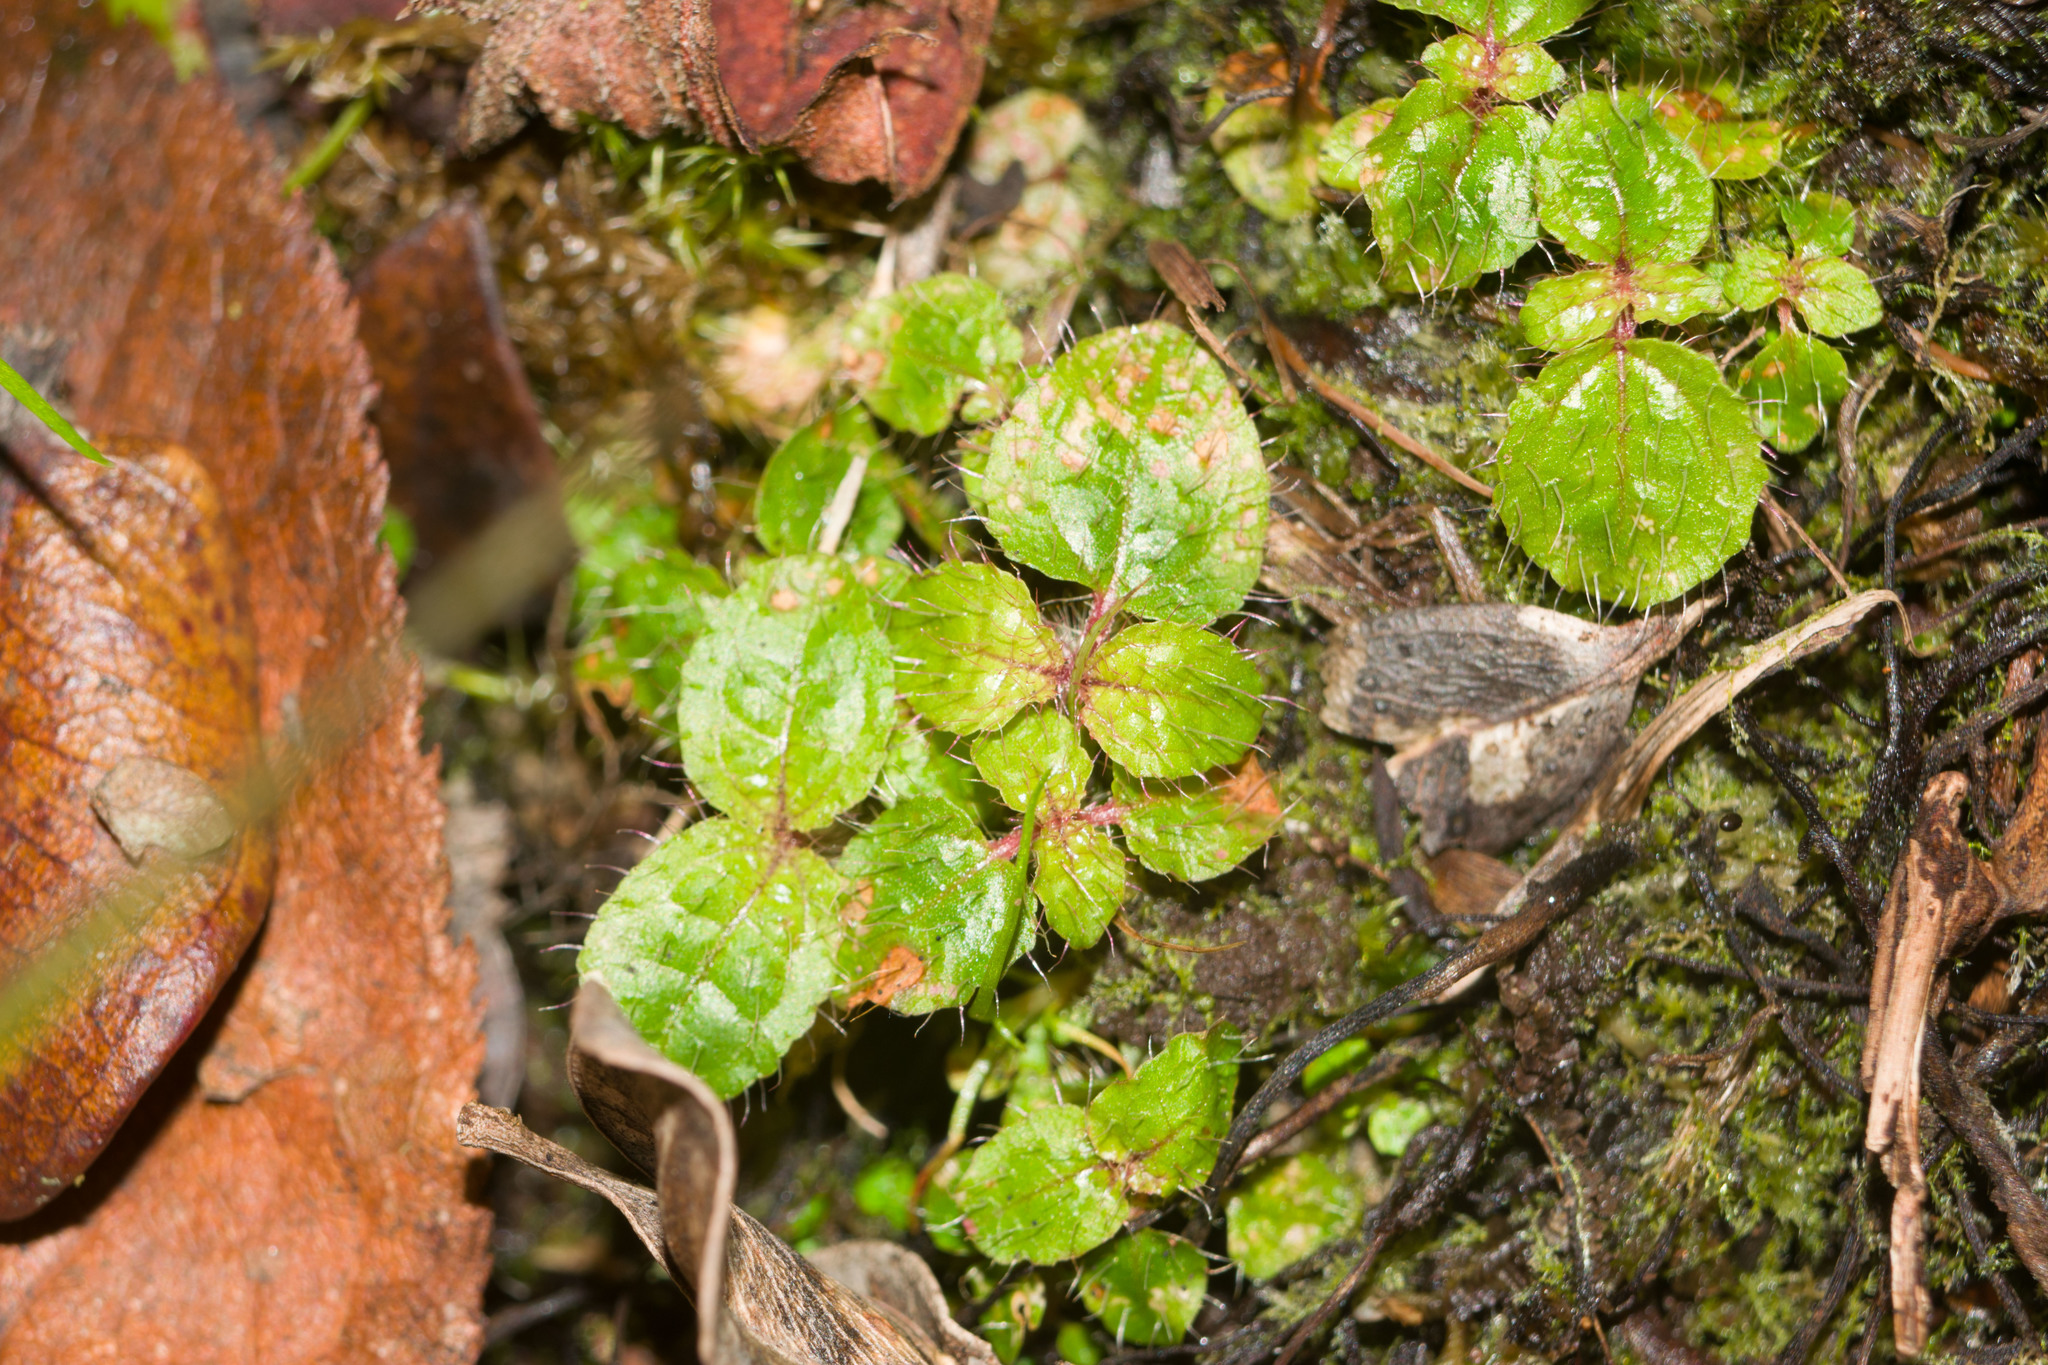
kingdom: Plantae
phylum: Tracheophyta
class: Magnoliopsida
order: Myrtales
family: Melastomataceae
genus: Miconia
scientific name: Miconia crenata
